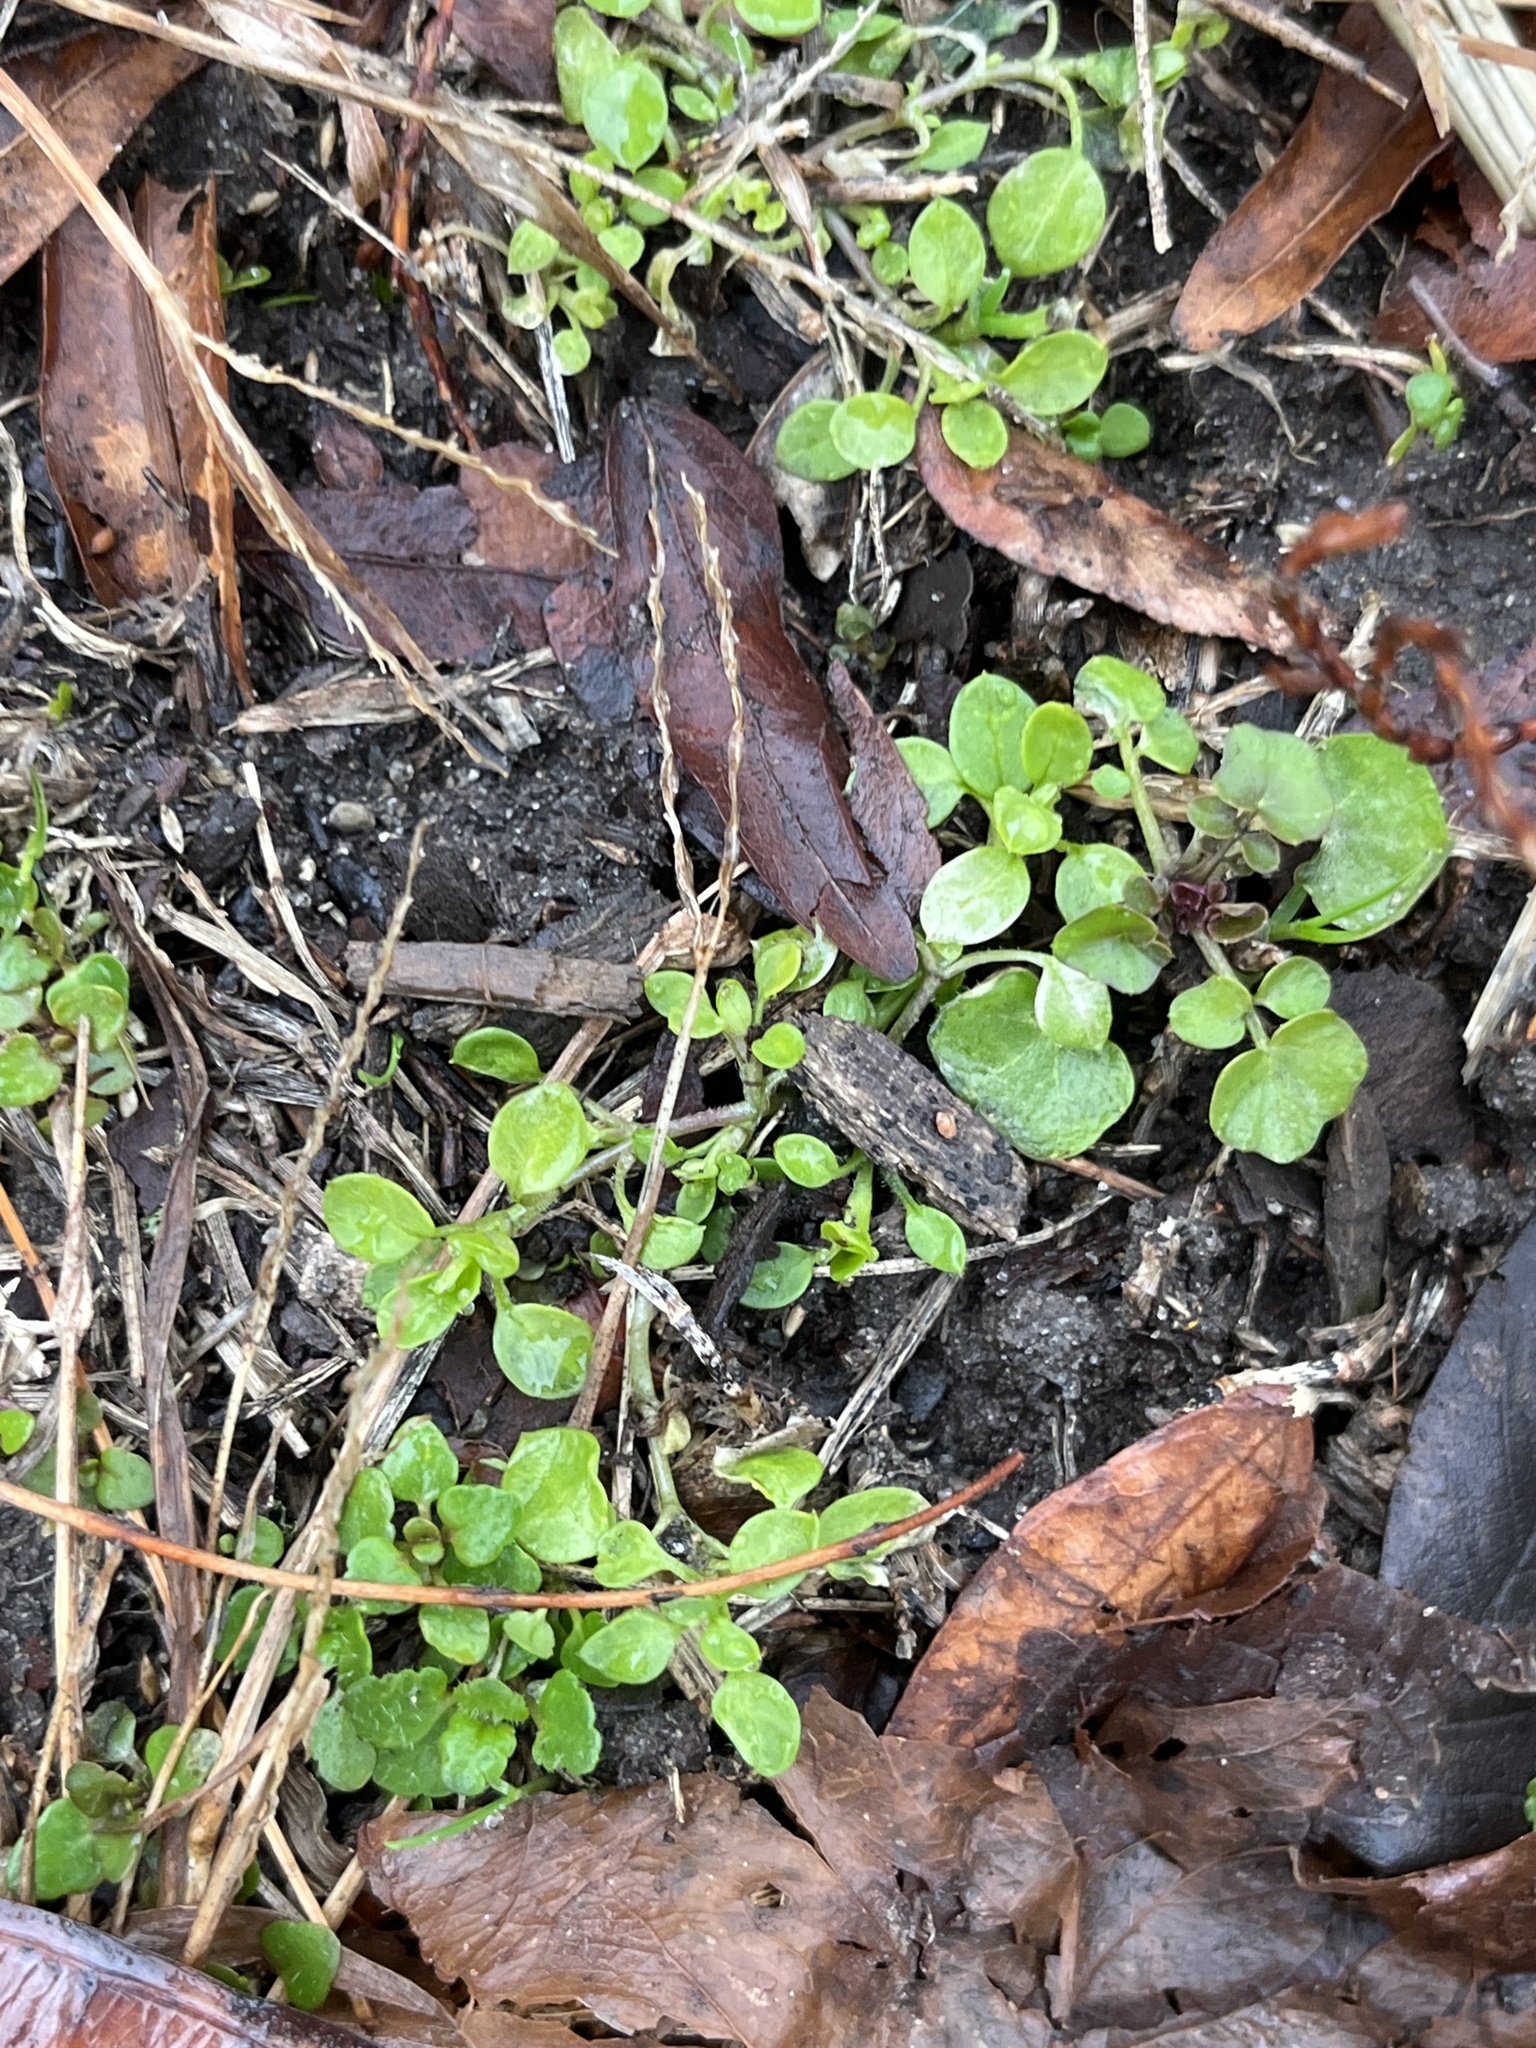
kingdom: Plantae
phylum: Tracheophyta
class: Magnoliopsida
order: Caryophyllales
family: Caryophyllaceae
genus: Stellaria
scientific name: Stellaria media
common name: Common chickweed
